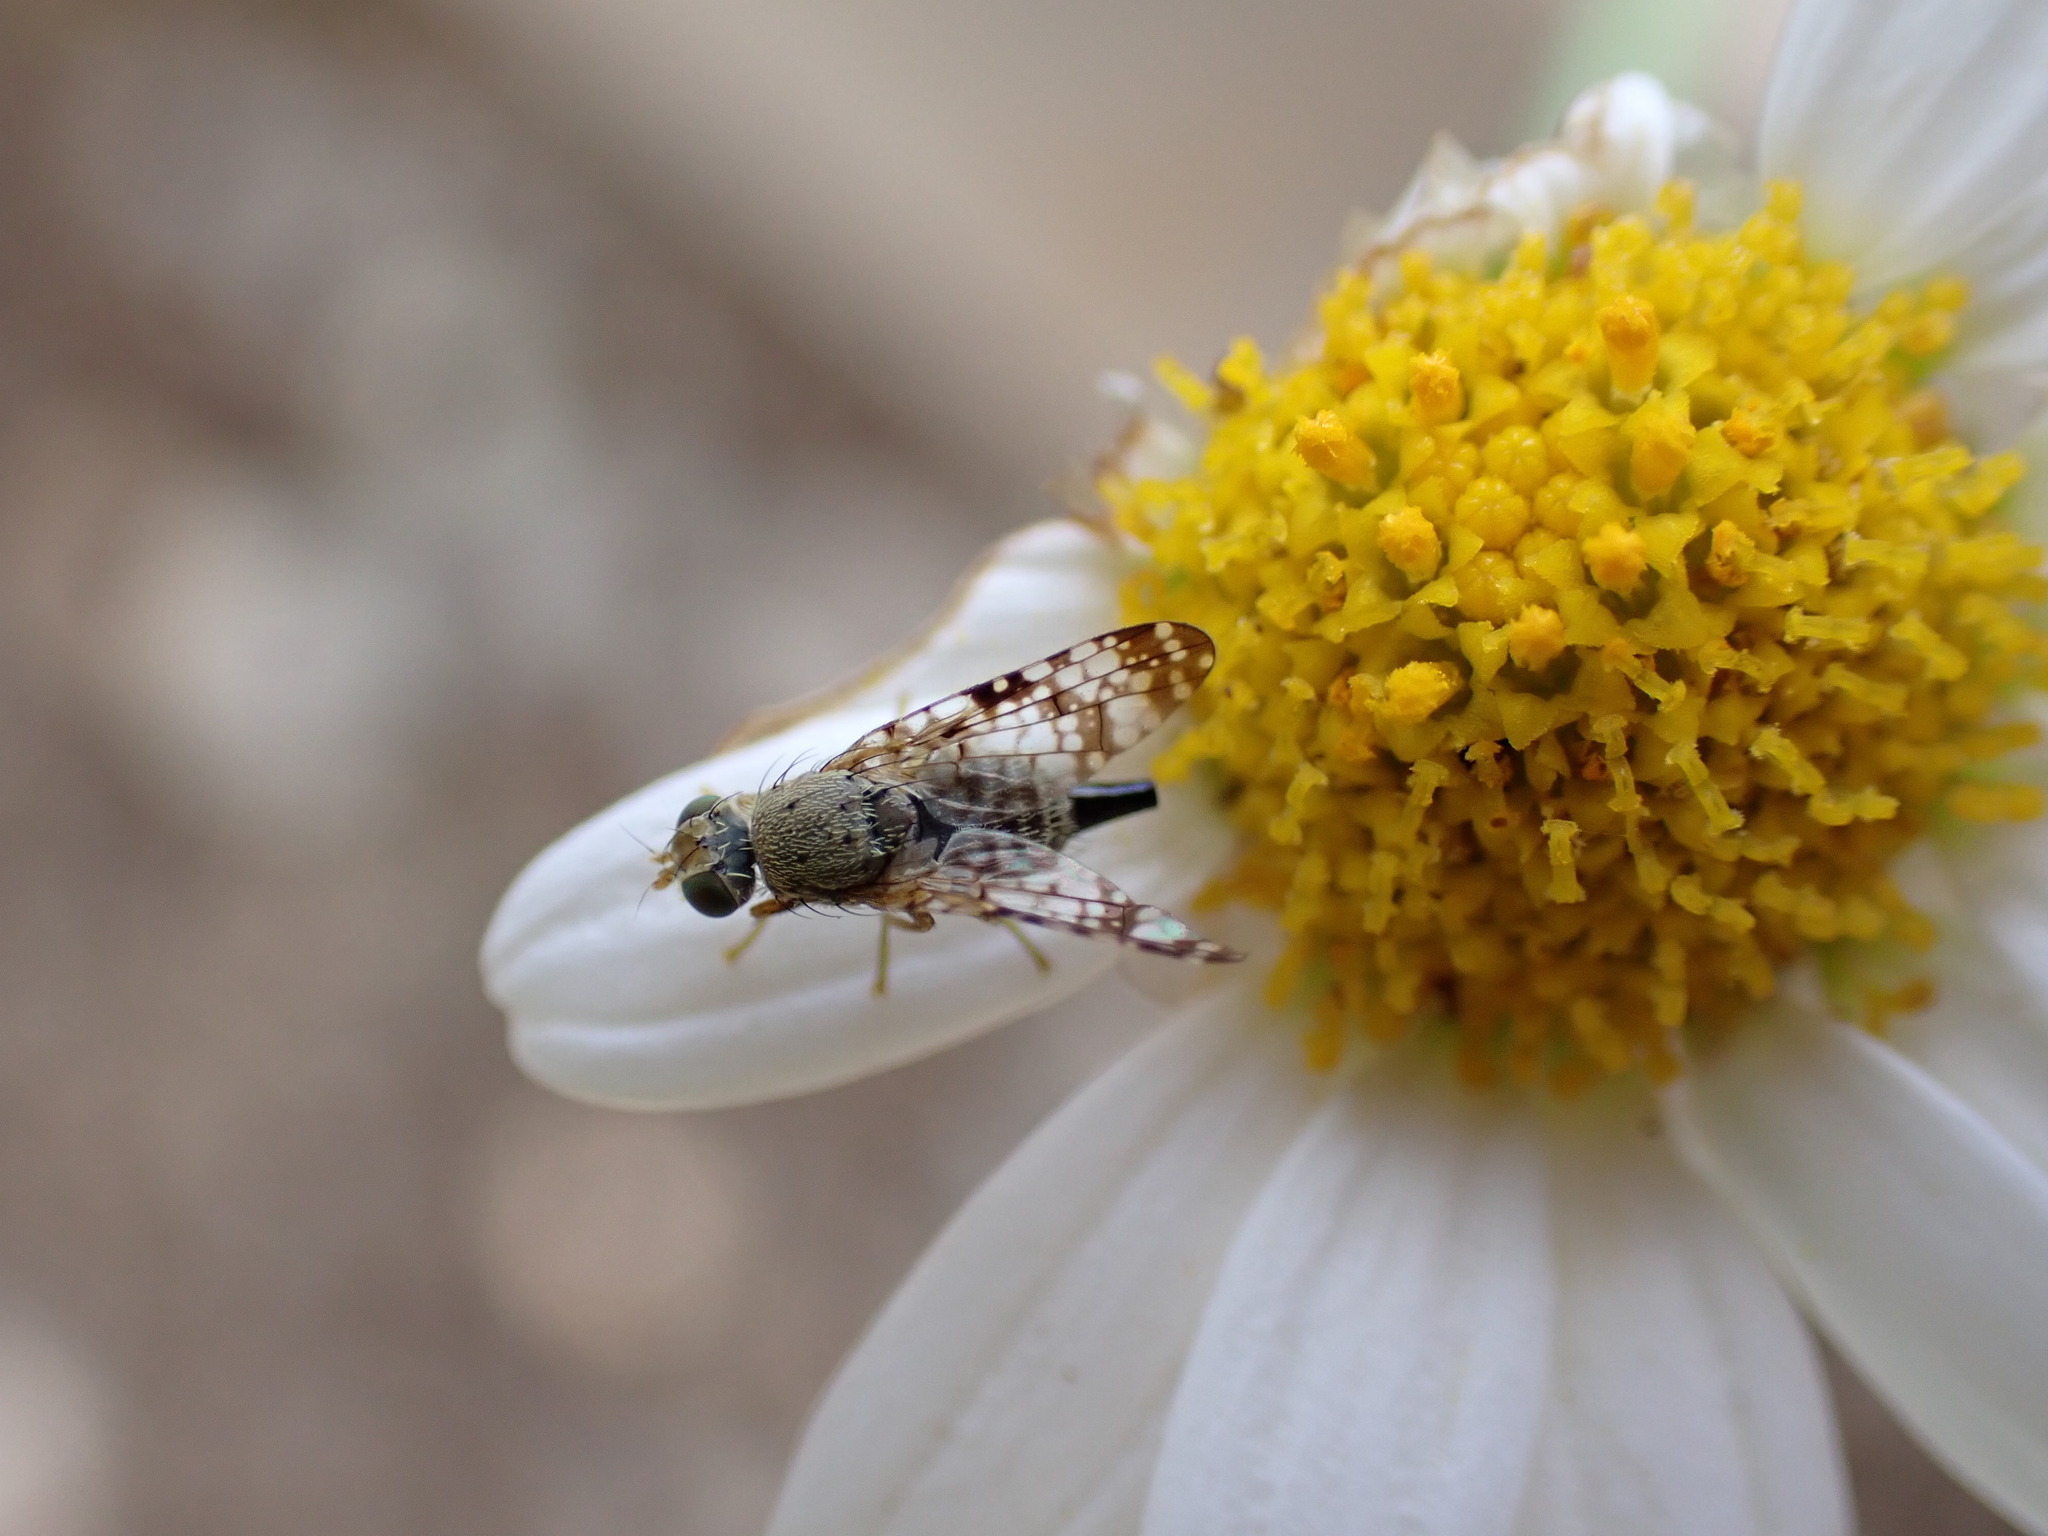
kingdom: Animalia
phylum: Arthropoda
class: Insecta
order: Diptera
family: Tephritidae
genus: Campiglossa
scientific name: Campiglossa duplex
